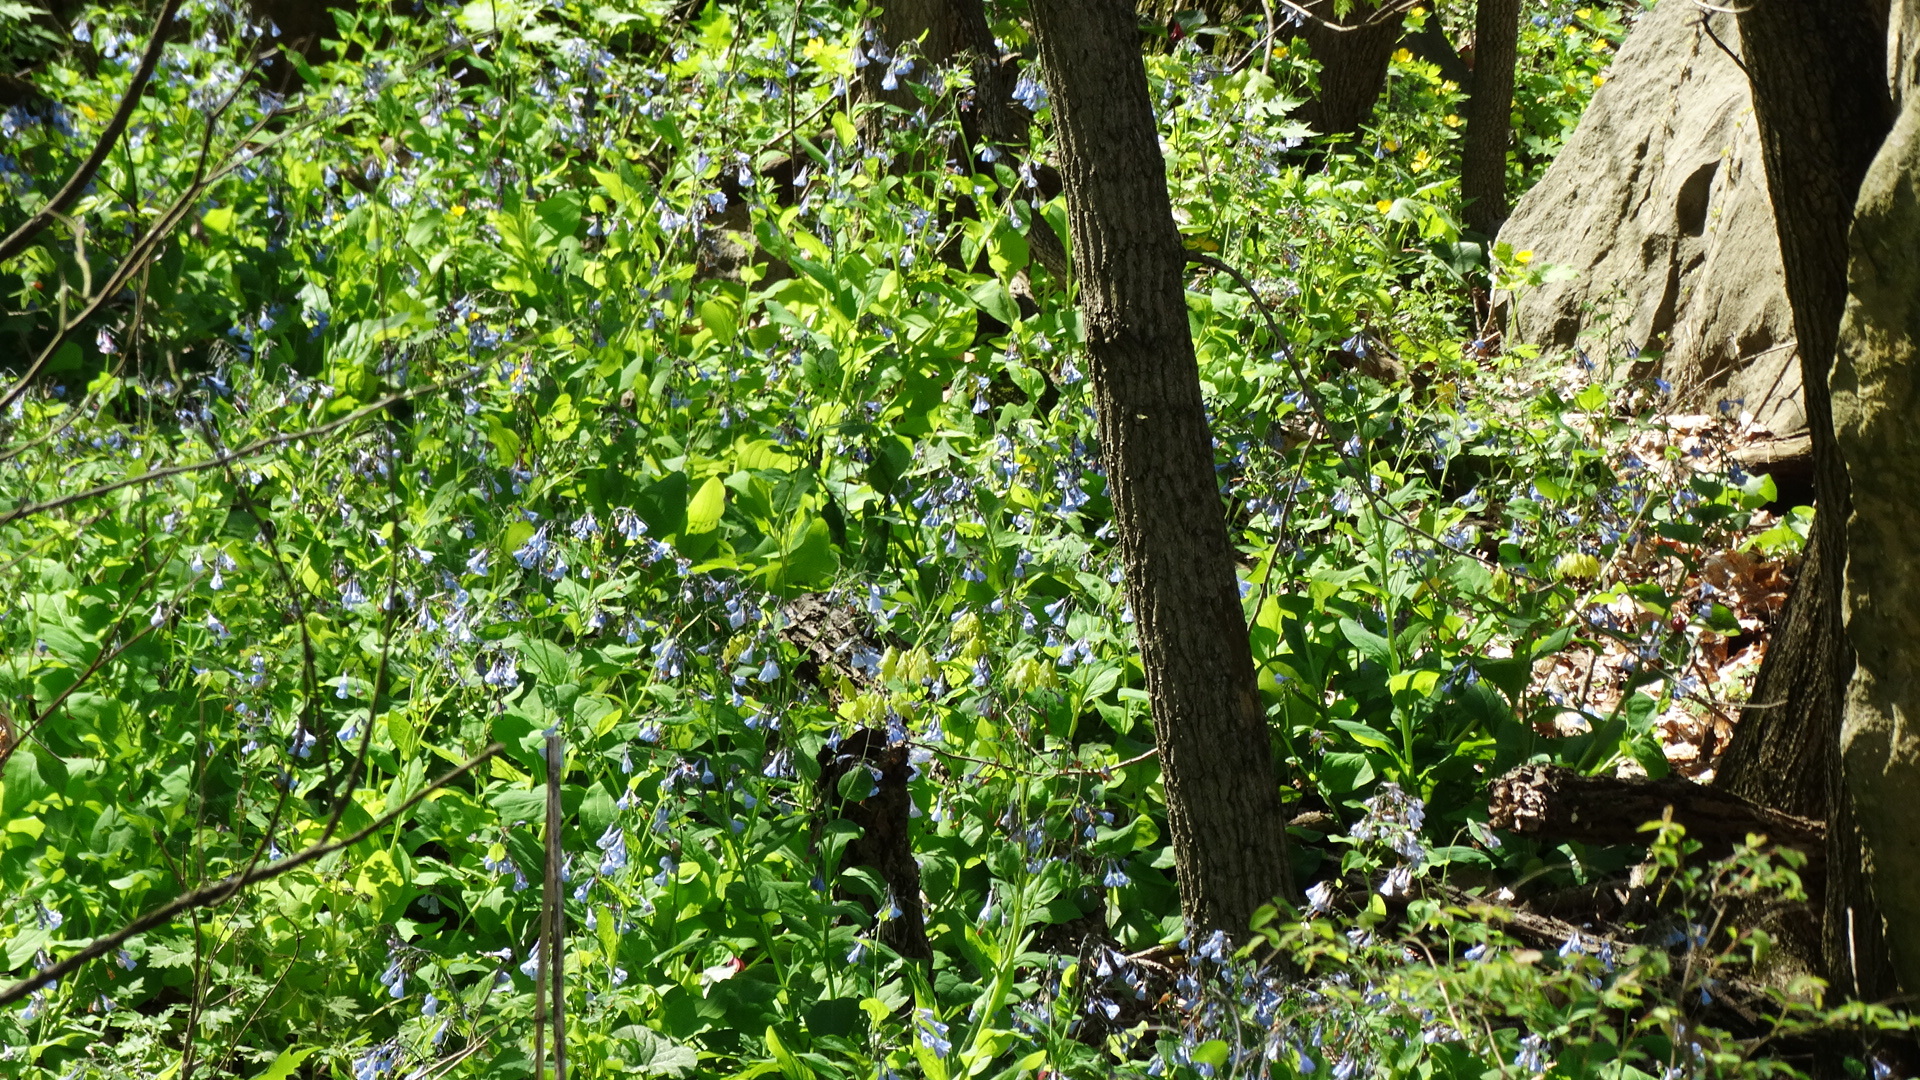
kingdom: Plantae
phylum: Tracheophyta
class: Magnoliopsida
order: Boraginales
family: Boraginaceae
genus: Mertensia
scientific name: Mertensia virginica
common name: Virginia bluebells
